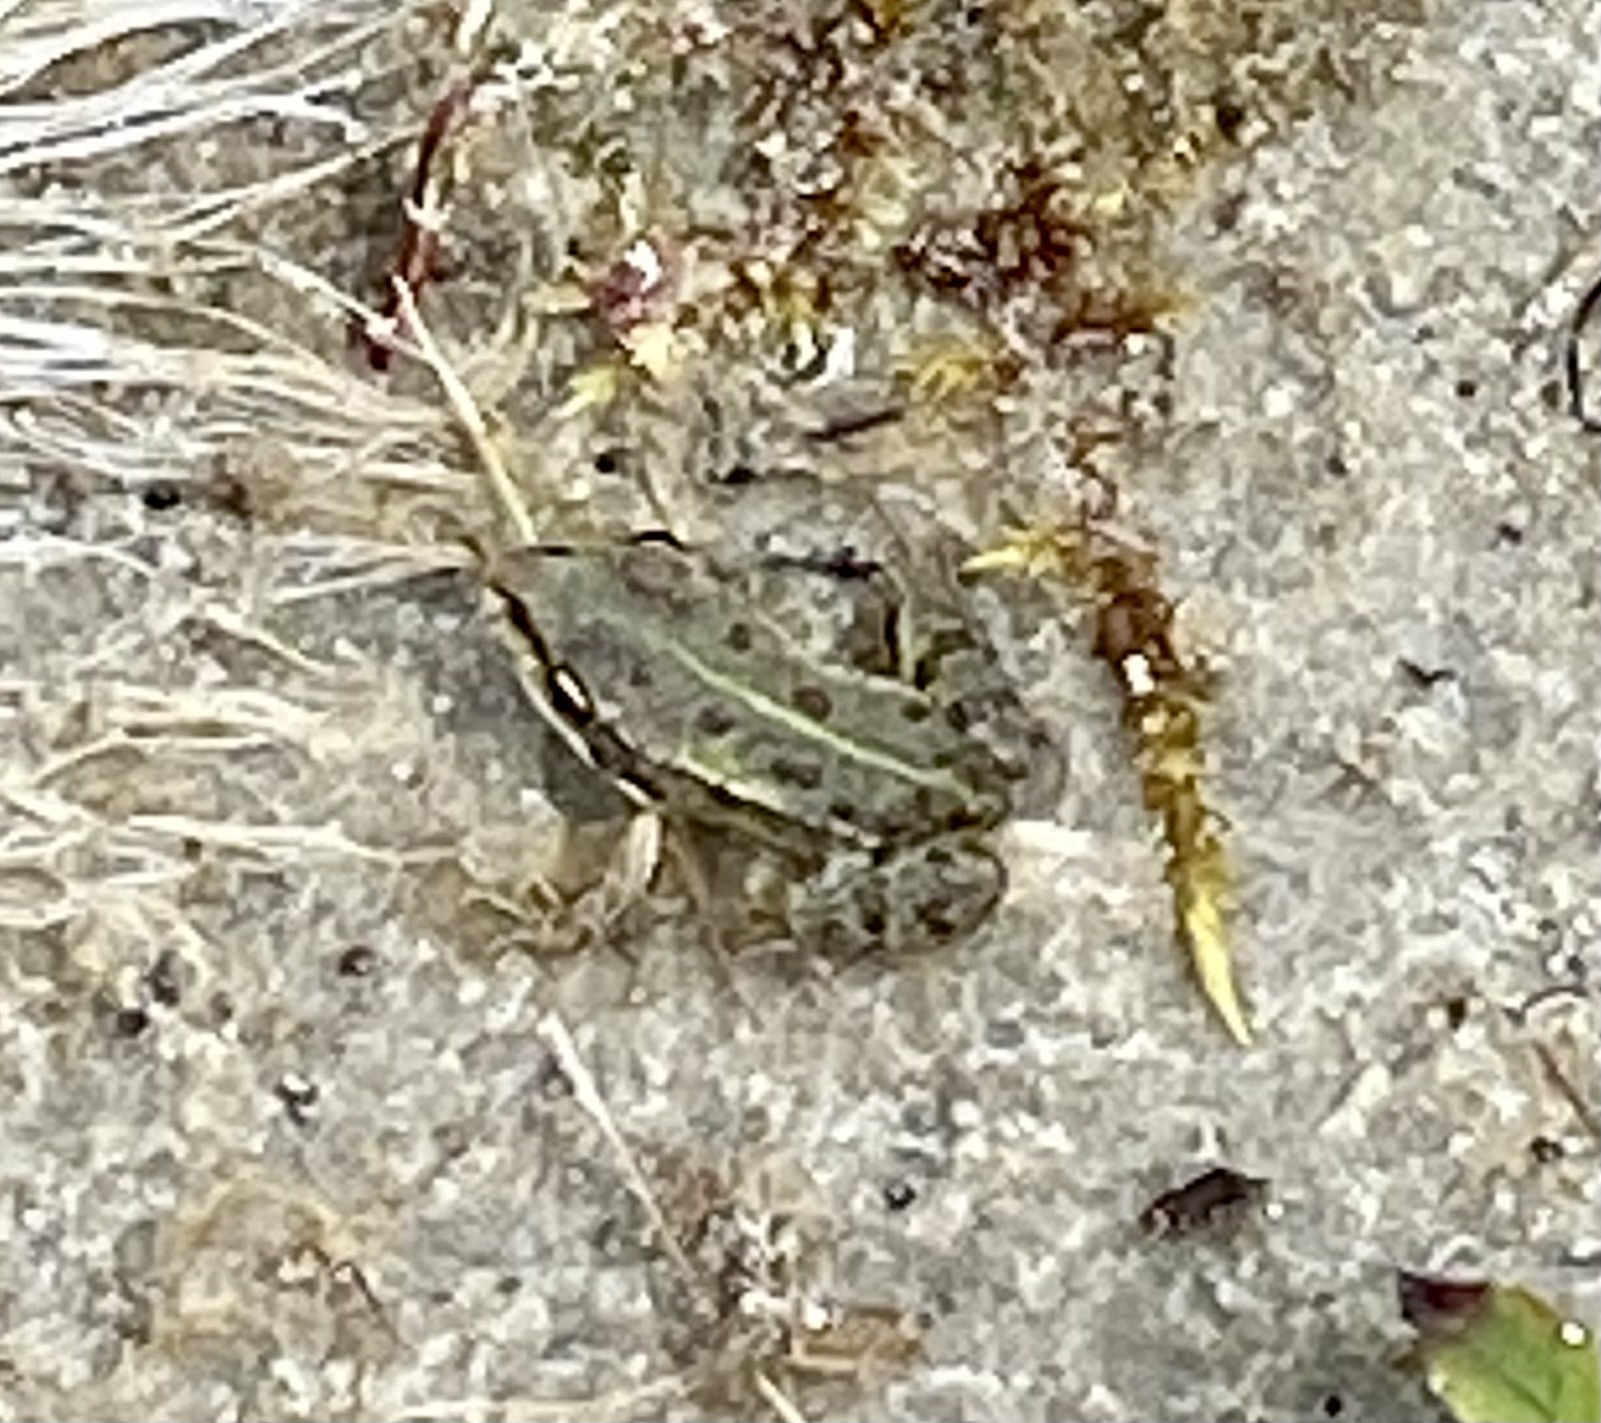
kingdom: Animalia
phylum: Chordata
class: Amphibia
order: Anura
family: Ranidae
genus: Pelophylax
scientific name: Pelophylax
